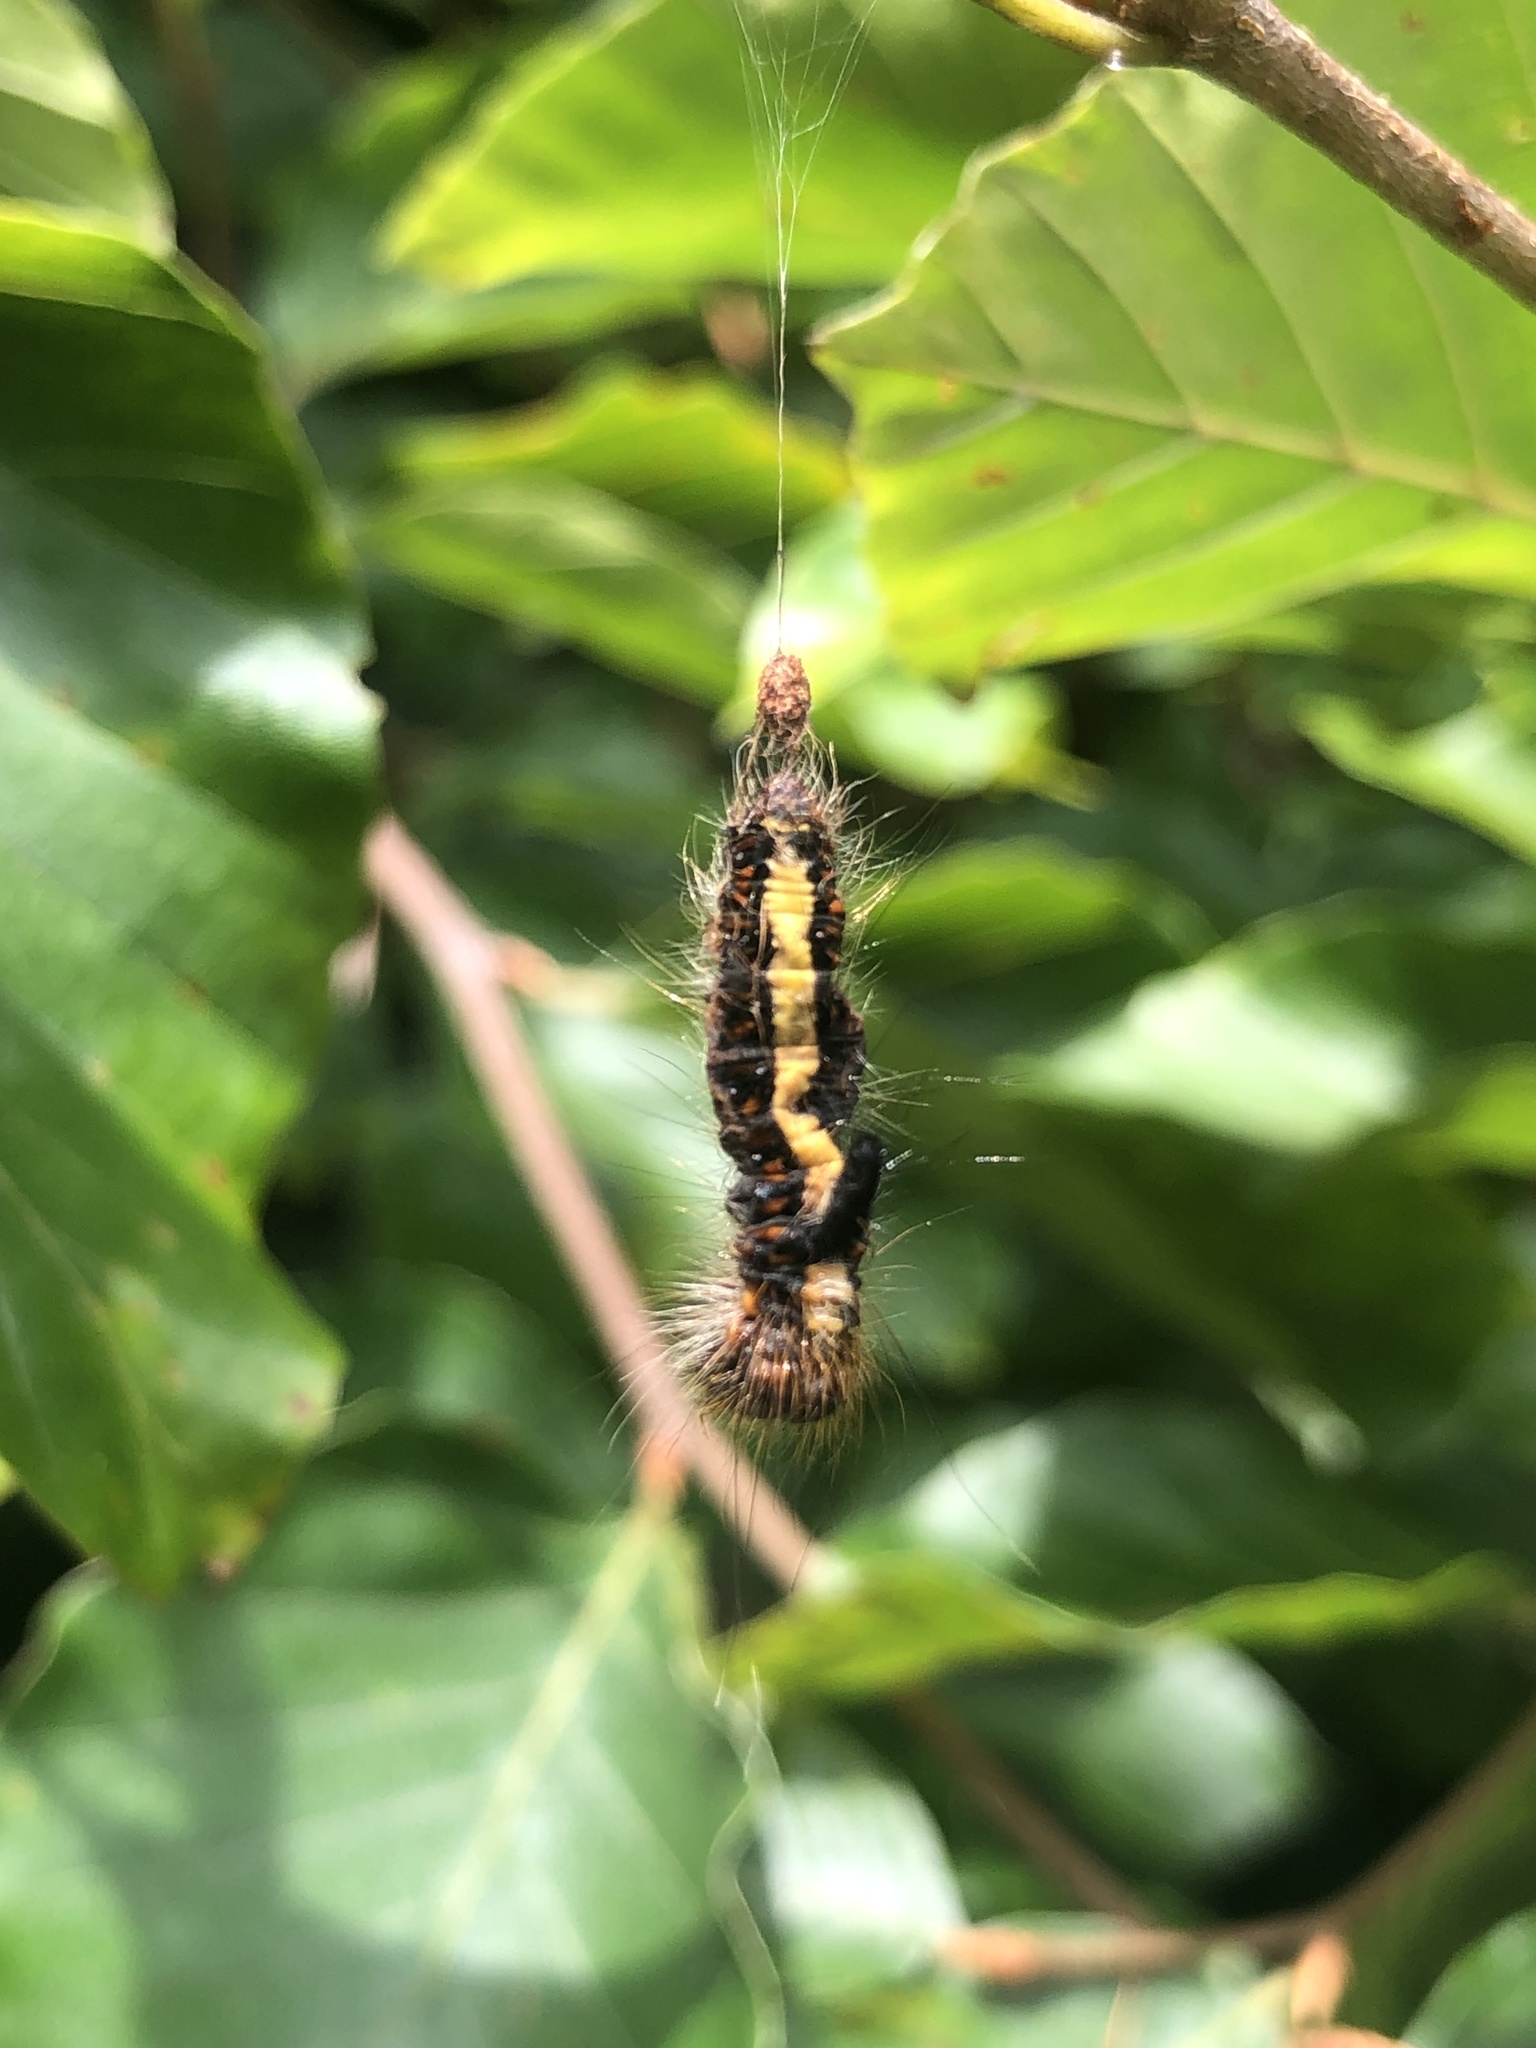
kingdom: Animalia
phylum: Arthropoda
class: Insecta
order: Lepidoptera
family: Noctuidae
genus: Acronicta
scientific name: Acronicta psi
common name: Grey dagger
